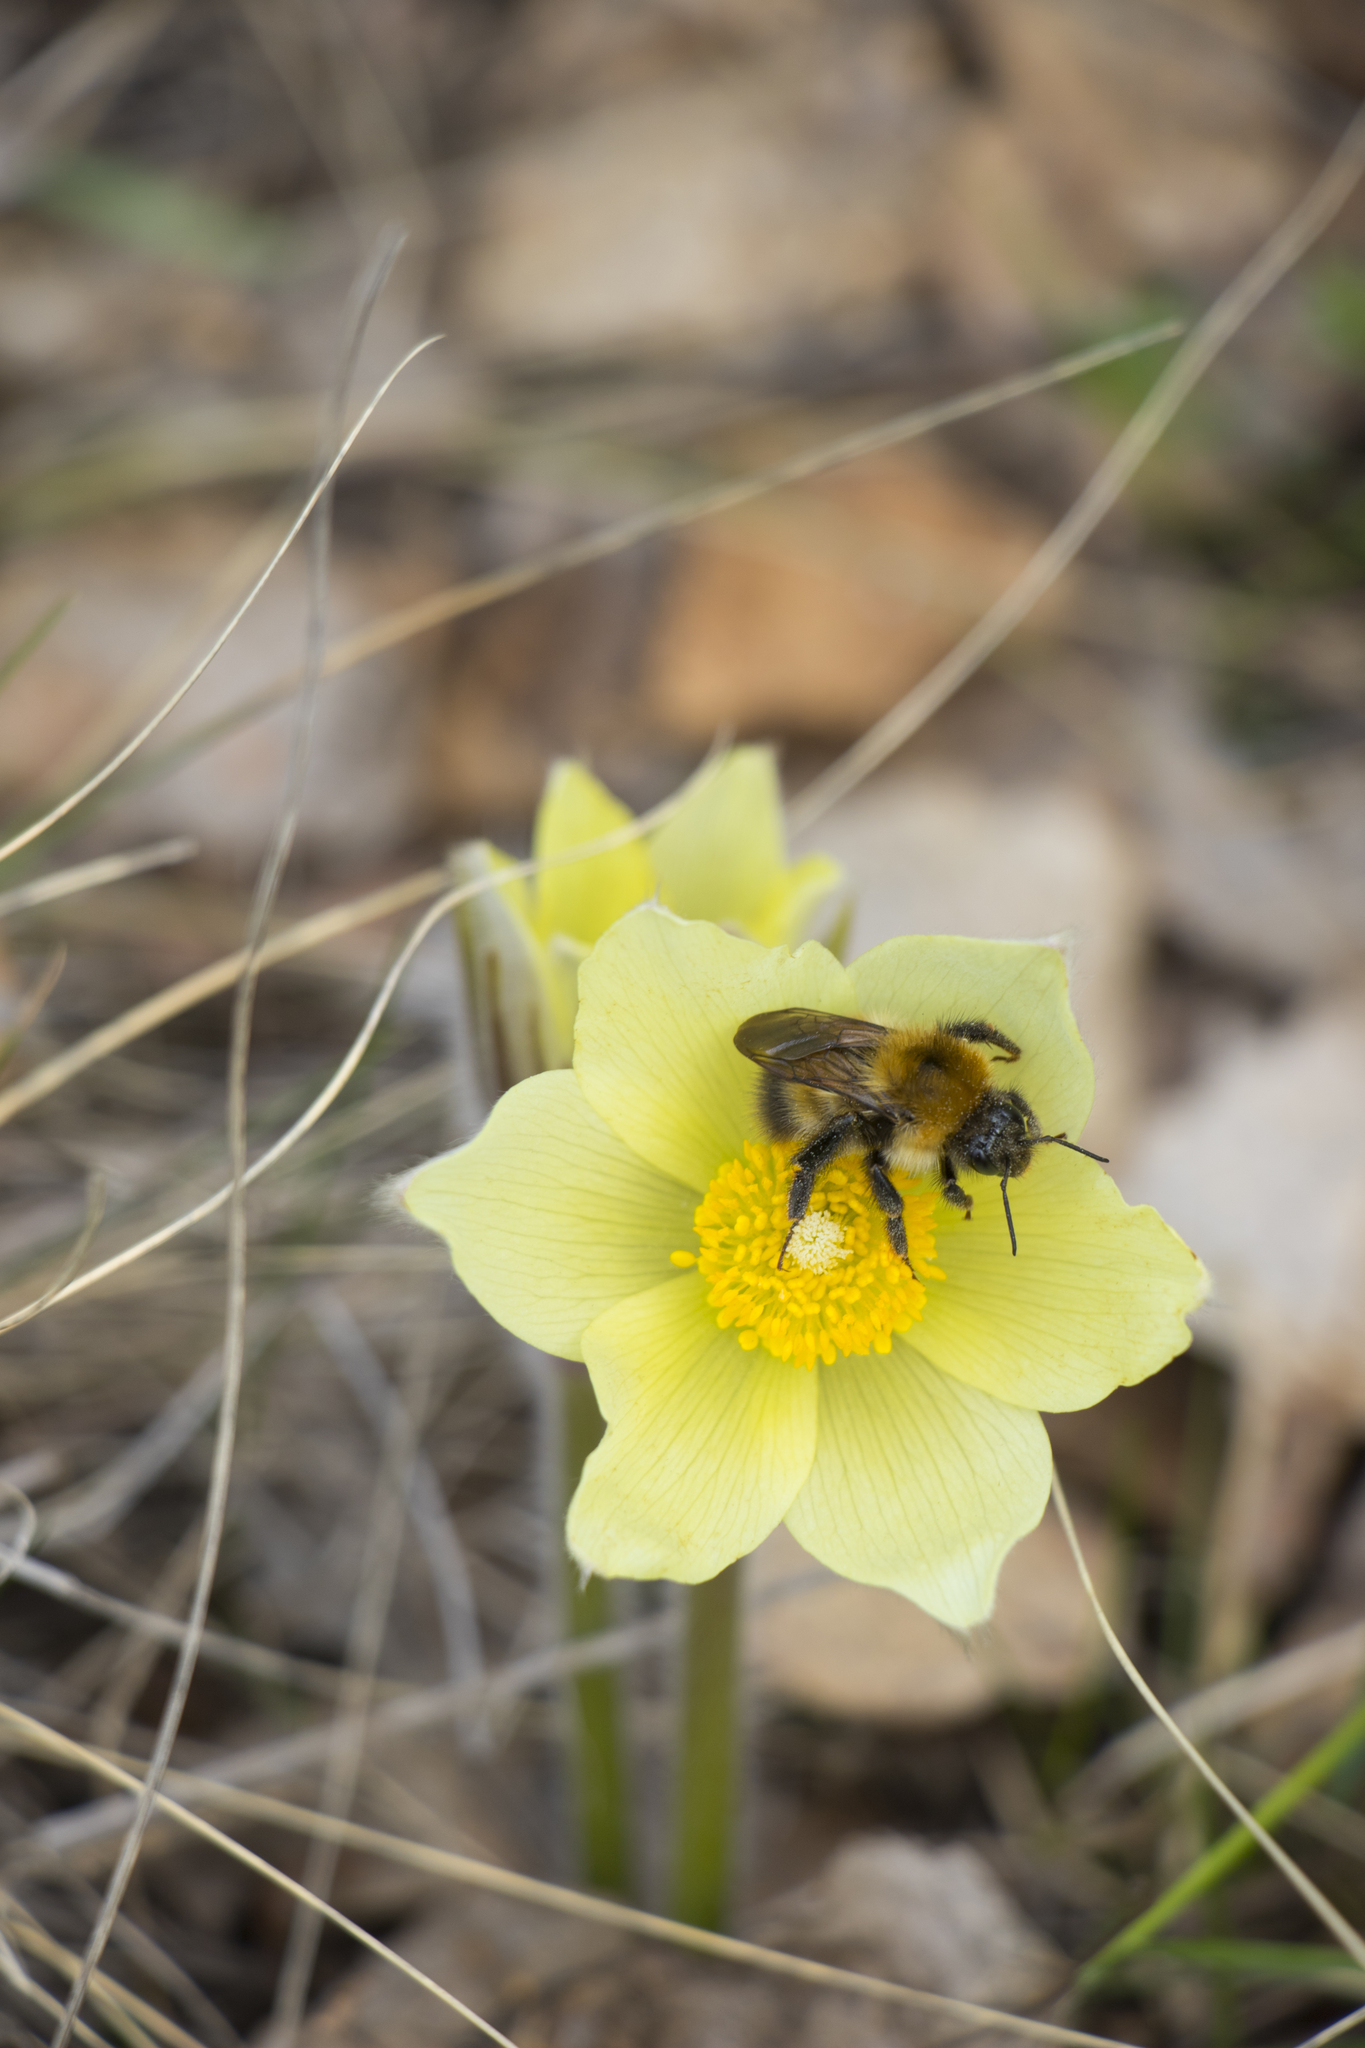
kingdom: Plantae
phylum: Tracheophyta
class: Magnoliopsida
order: Ranunculales
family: Ranunculaceae
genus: Pulsatilla
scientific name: Pulsatilla patens
